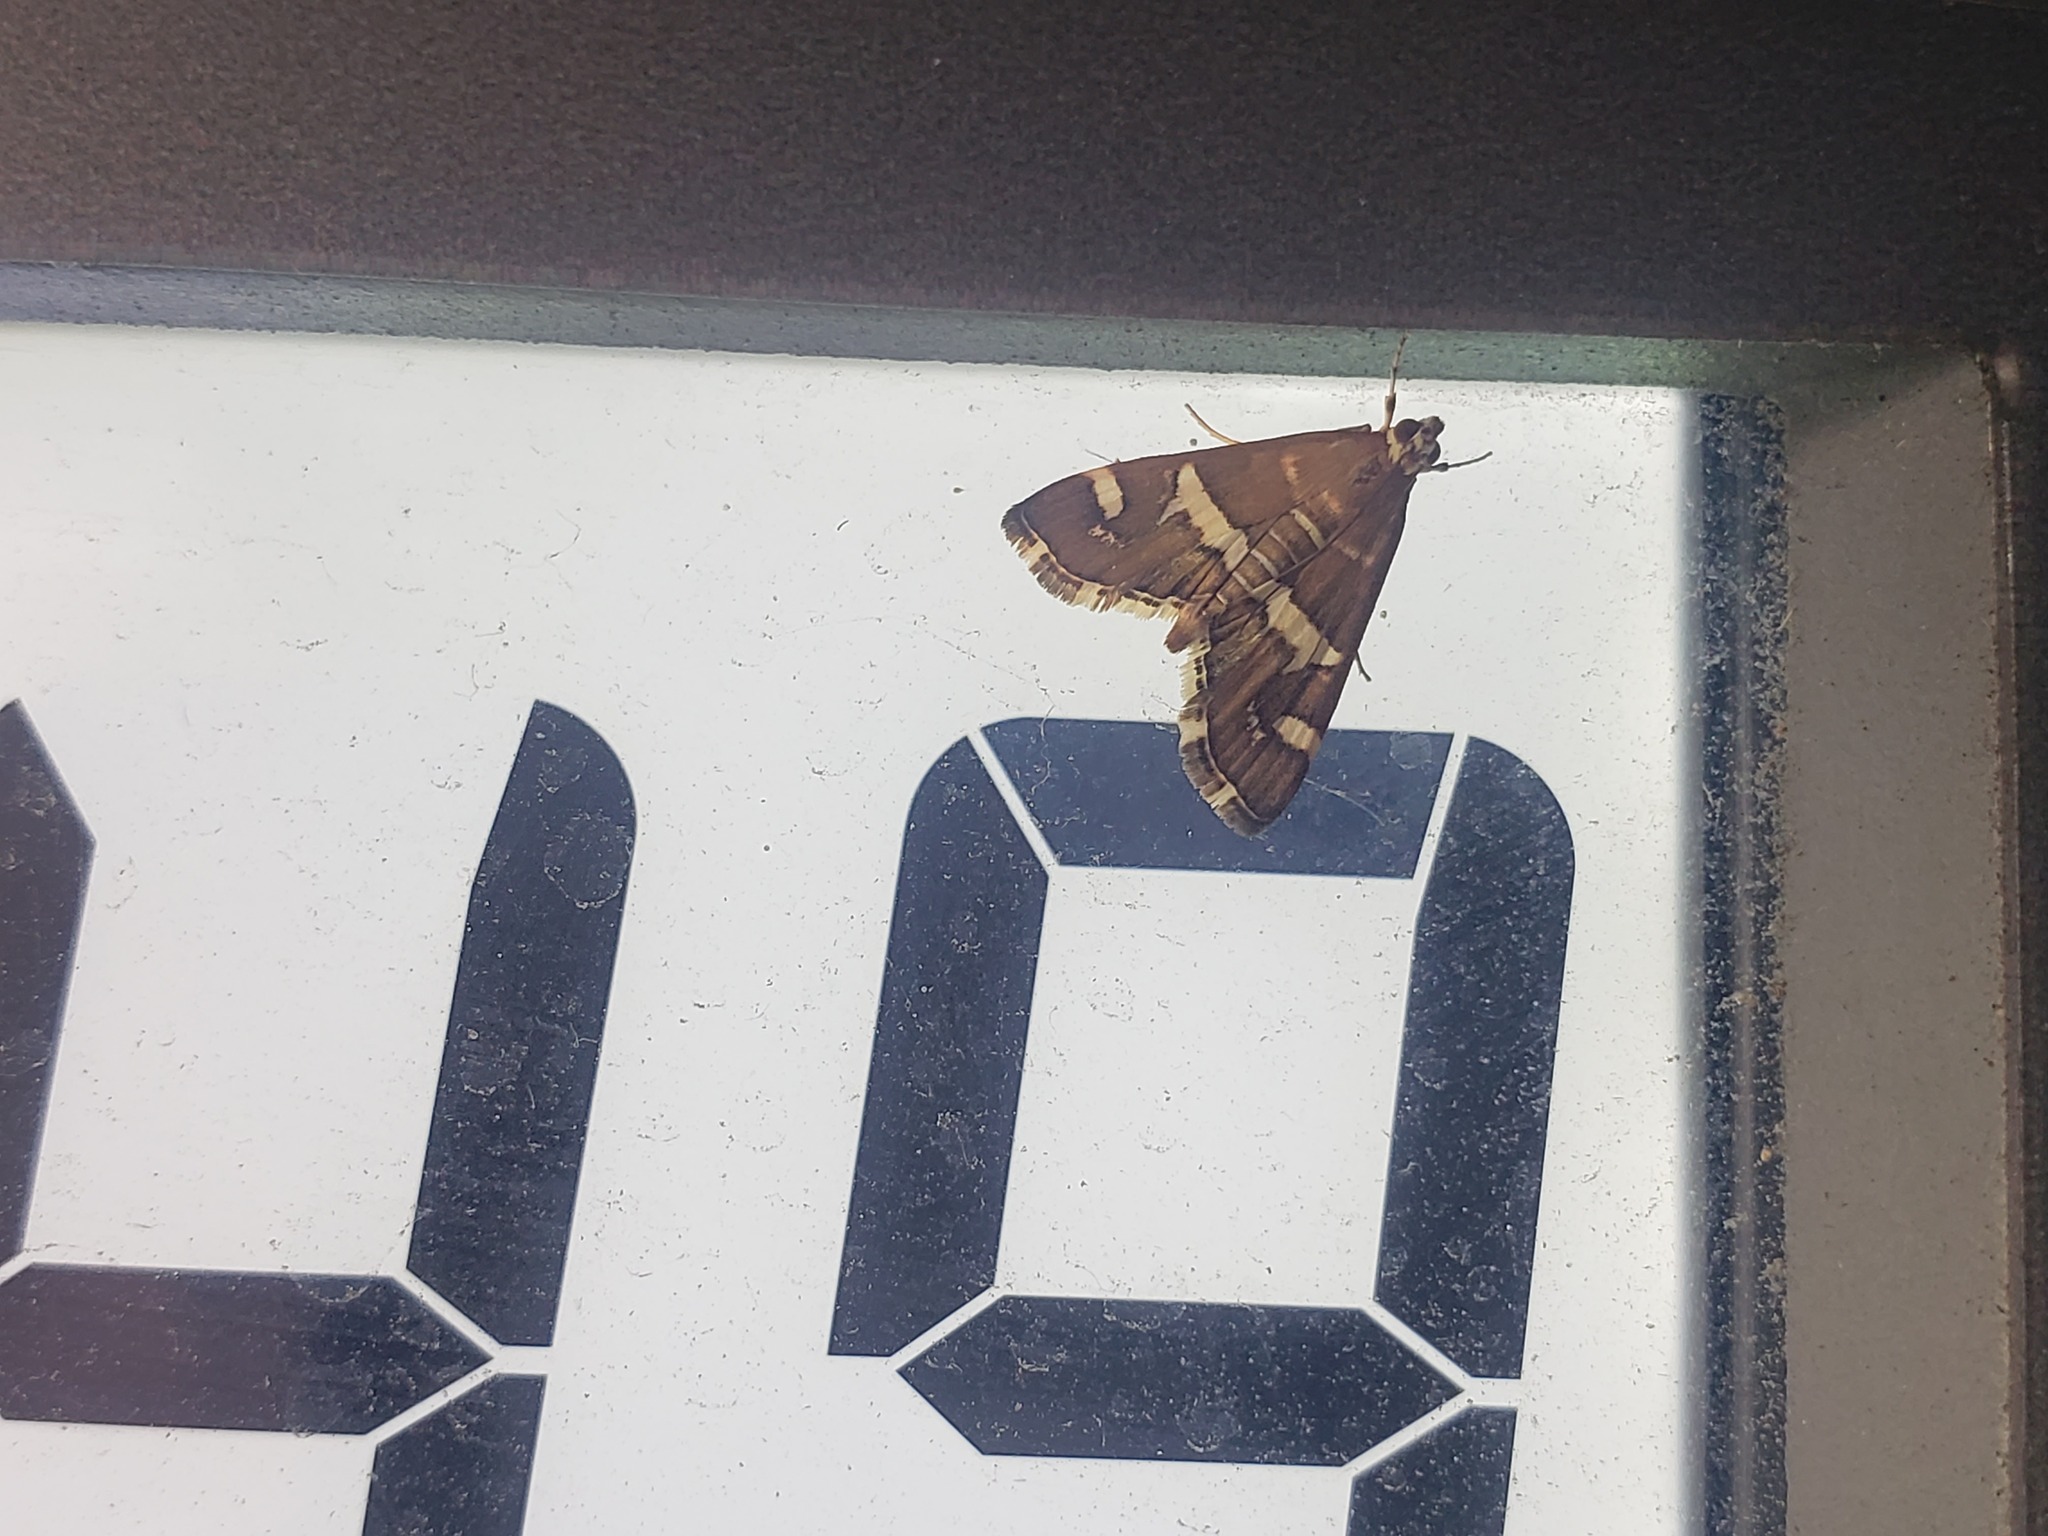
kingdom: Animalia
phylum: Arthropoda
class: Insecta
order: Lepidoptera
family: Crambidae
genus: Spoladea
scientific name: Spoladea recurvalis
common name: Beet webworm moth
